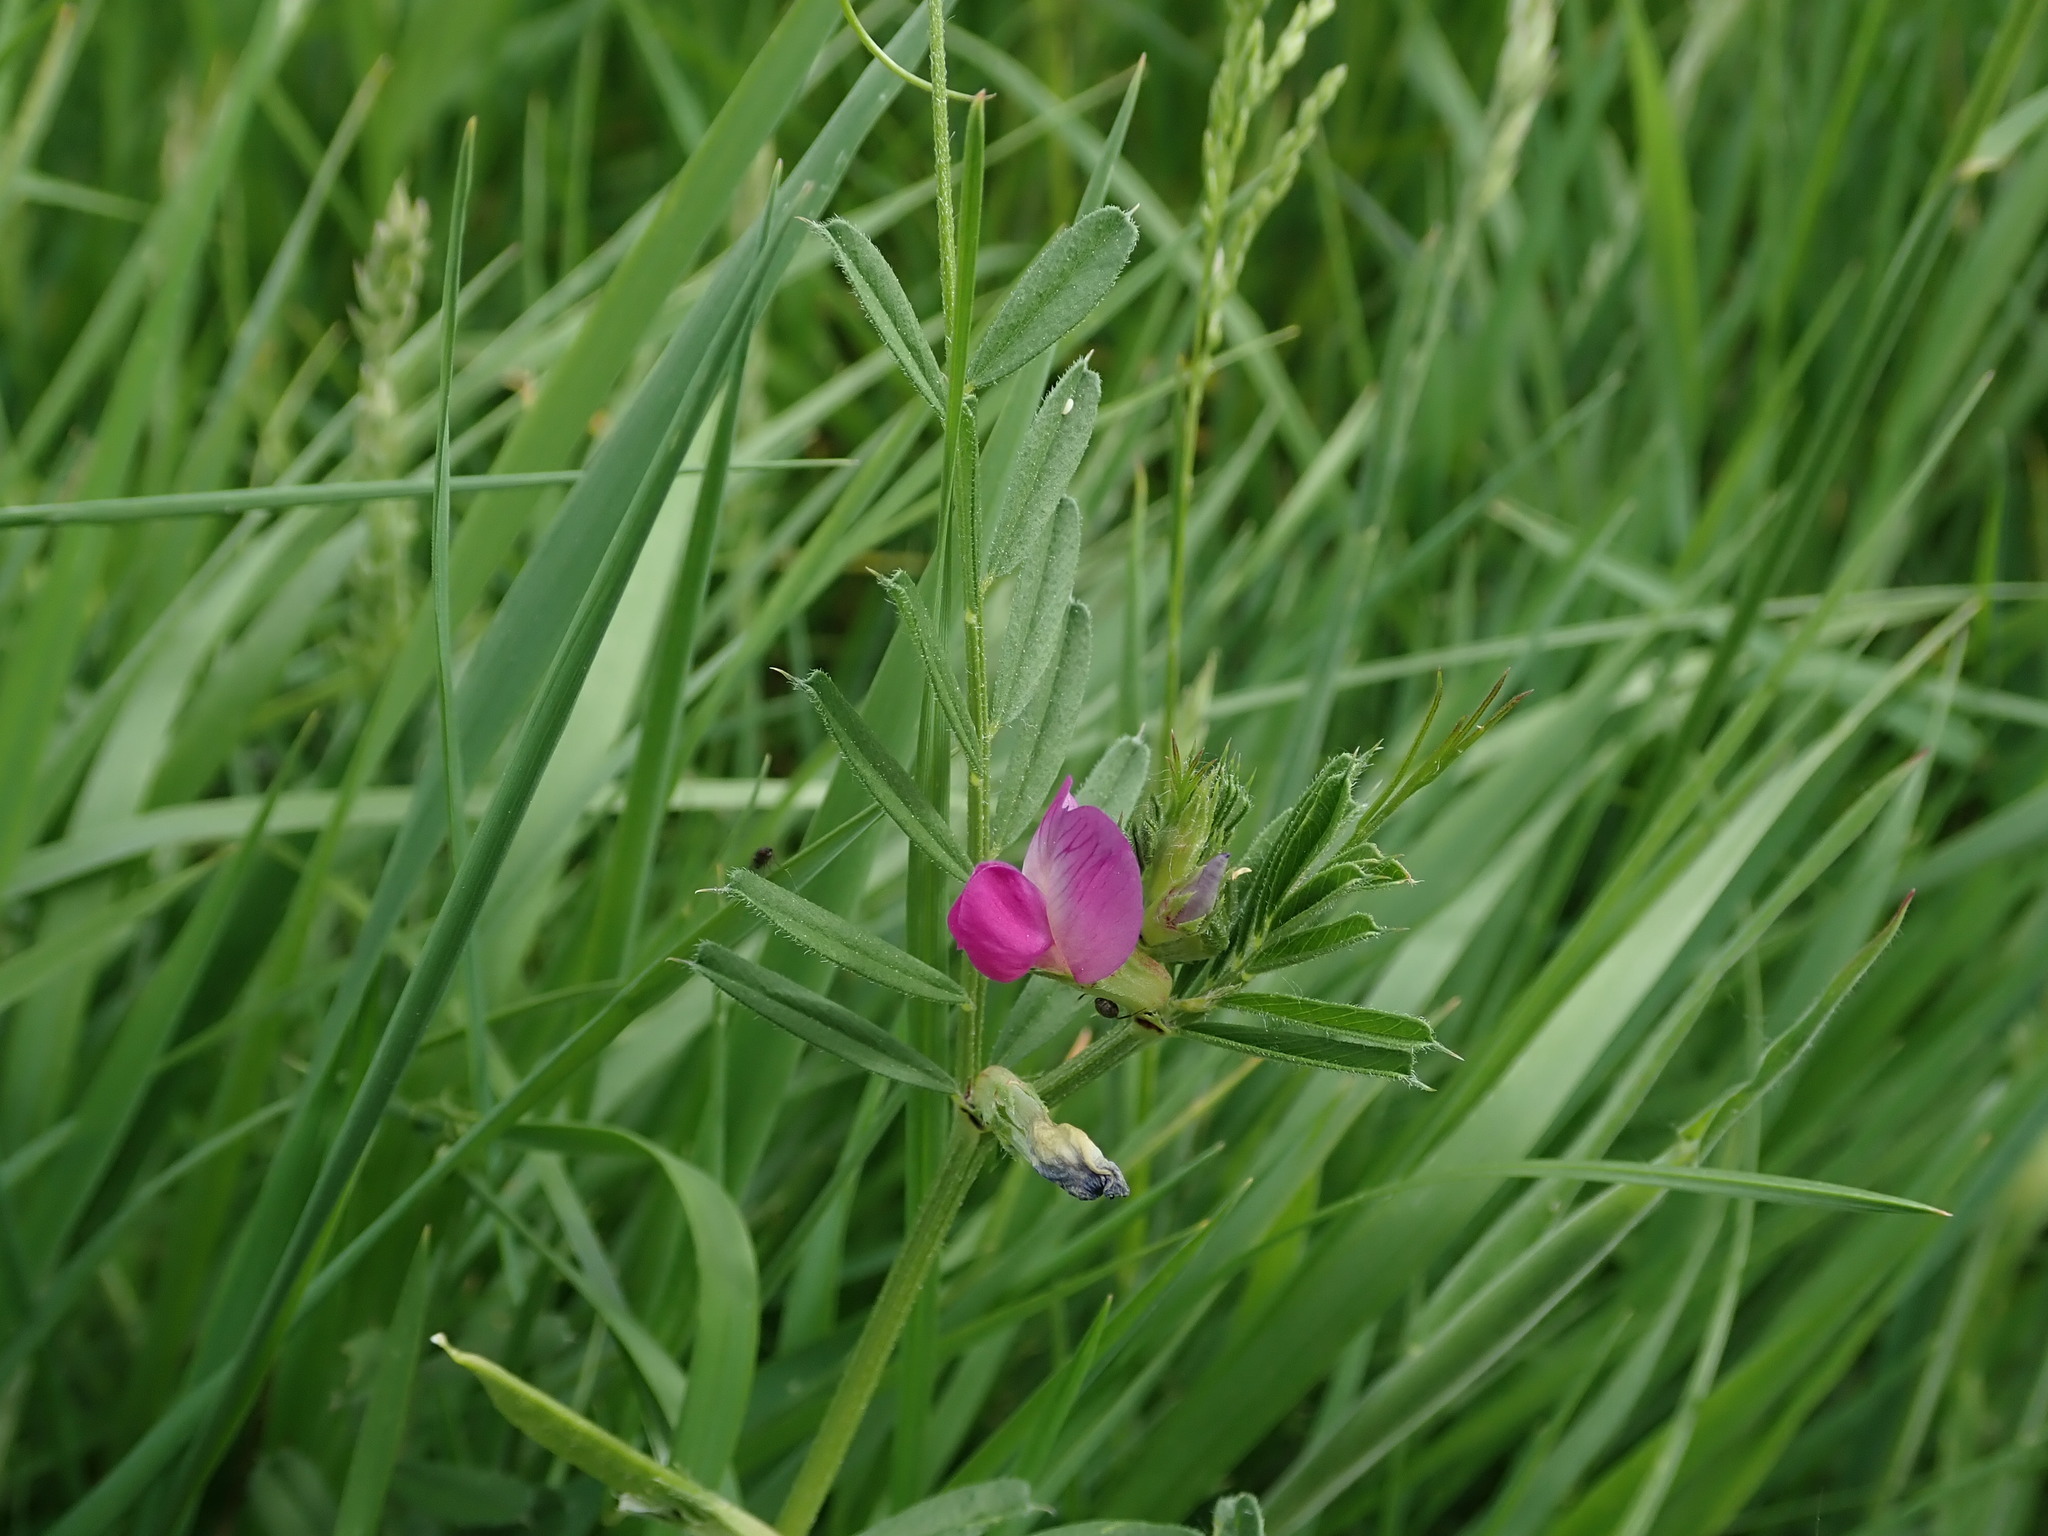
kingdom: Plantae
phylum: Tracheophyta
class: Magnoliopsida
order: Fabales
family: Fabaceae
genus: Vicia
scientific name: Vicia sativa
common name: Garden vetch
